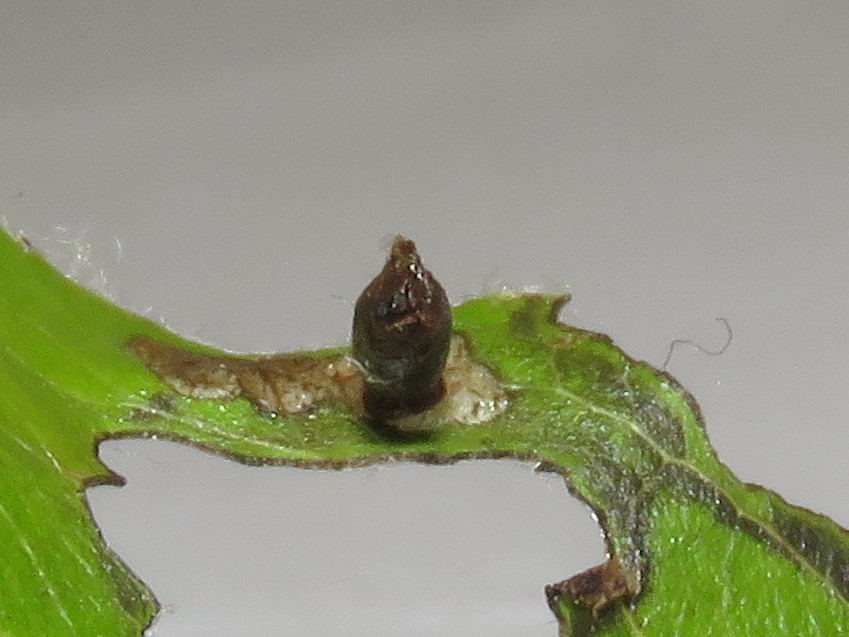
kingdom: Animalia
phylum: Arthropoda
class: Insecta
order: Lepidoptera
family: Coleophoridae
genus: Coleophora
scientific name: Coleophora spinella
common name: Apple & plum case-bearer
